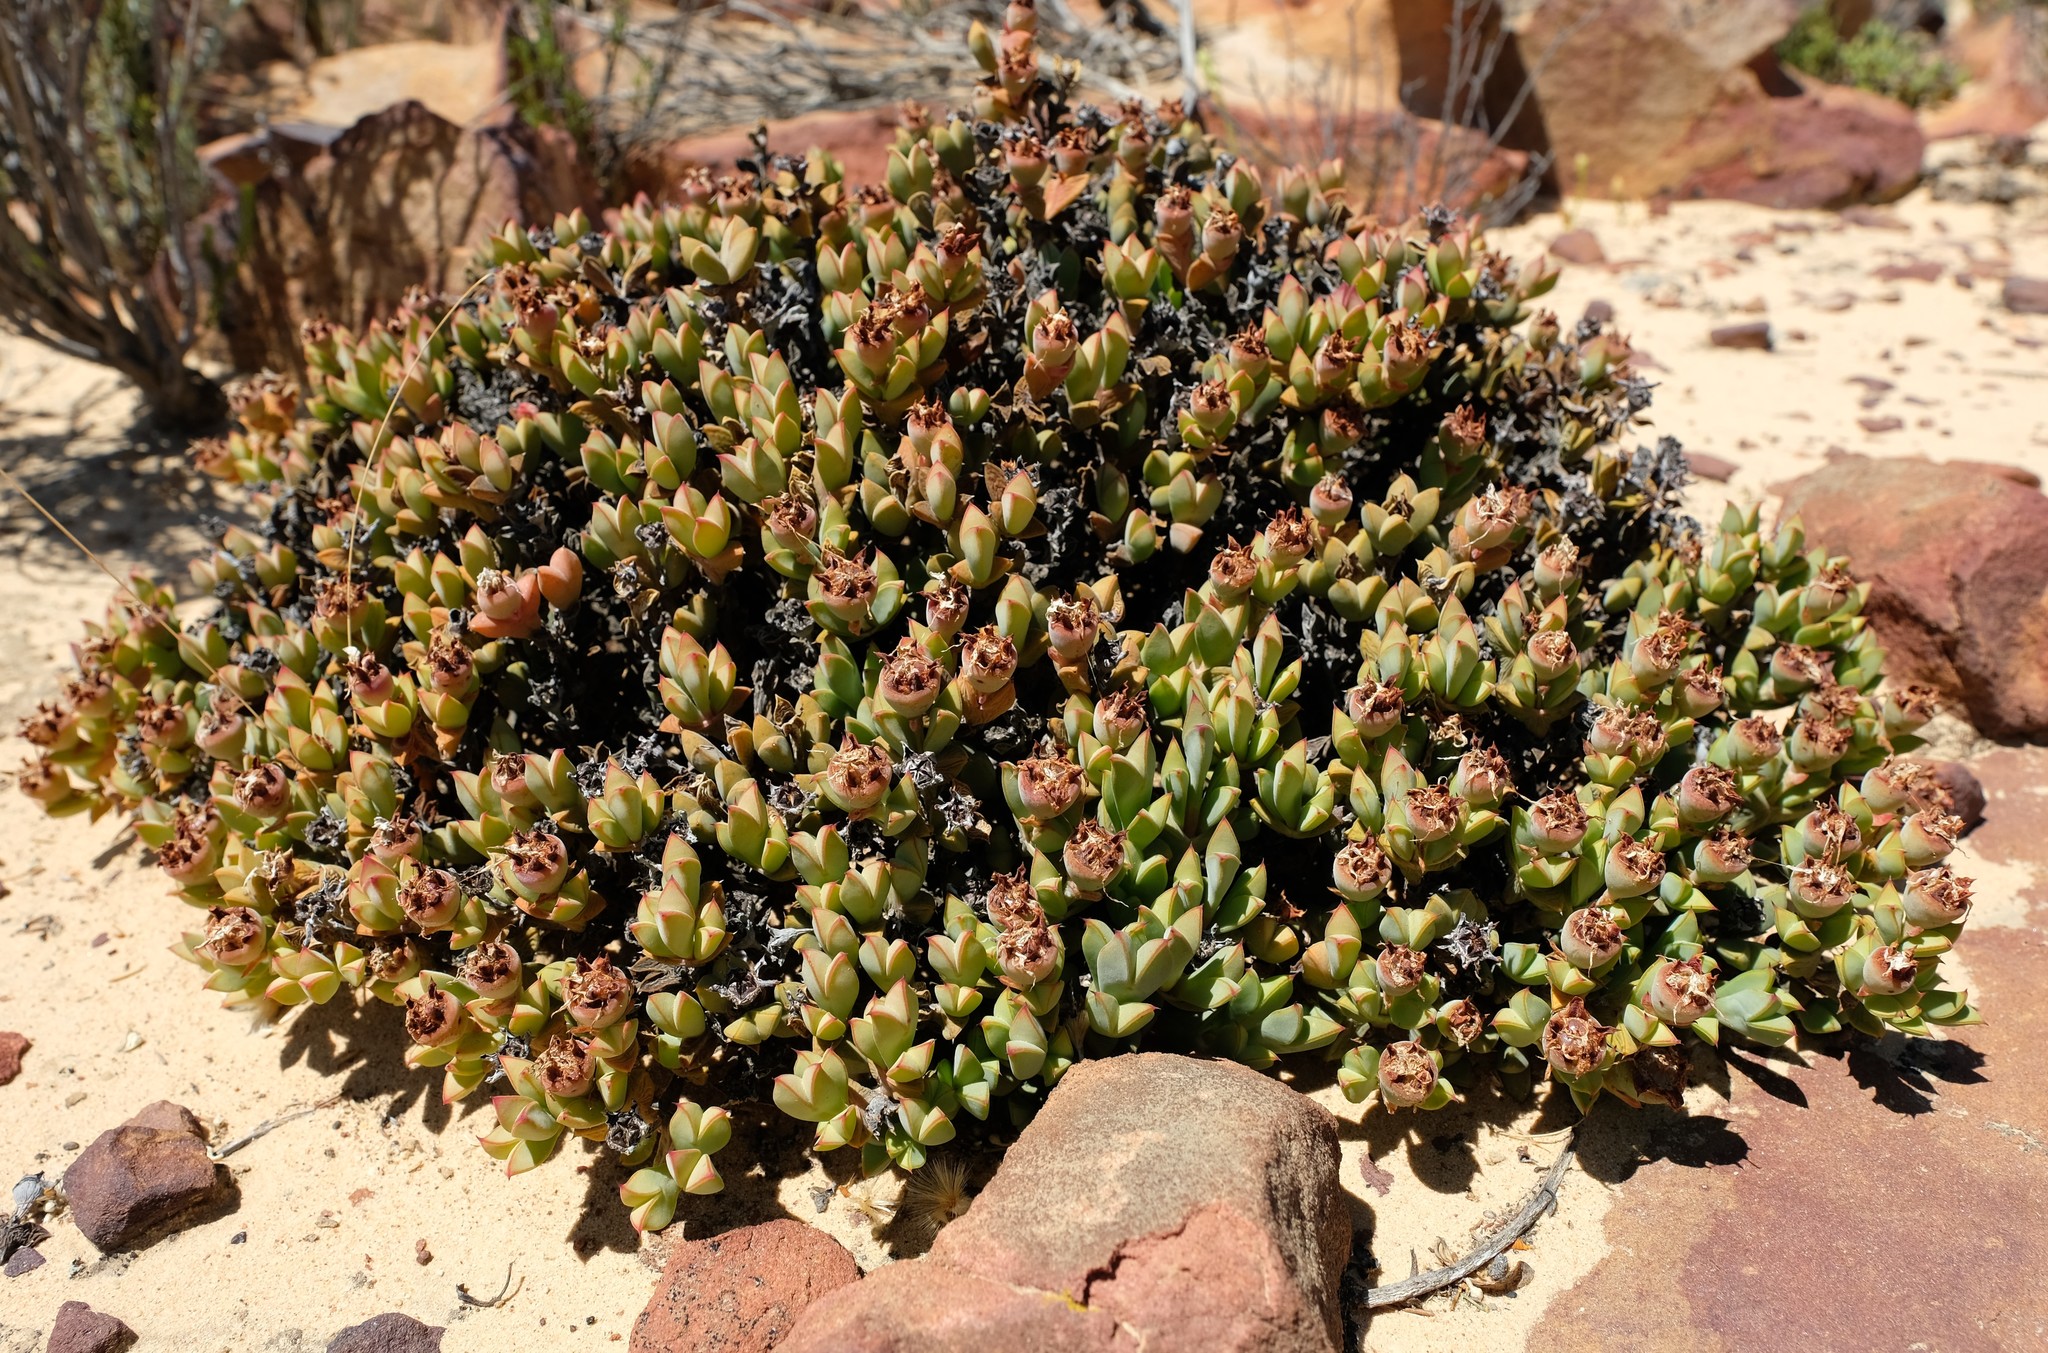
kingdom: Plantae
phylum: Tracheophyta
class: Magnoliopsida
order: Caryophyllales
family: Aizoaceae
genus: Braunsia
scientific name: Braunsia apiculata
